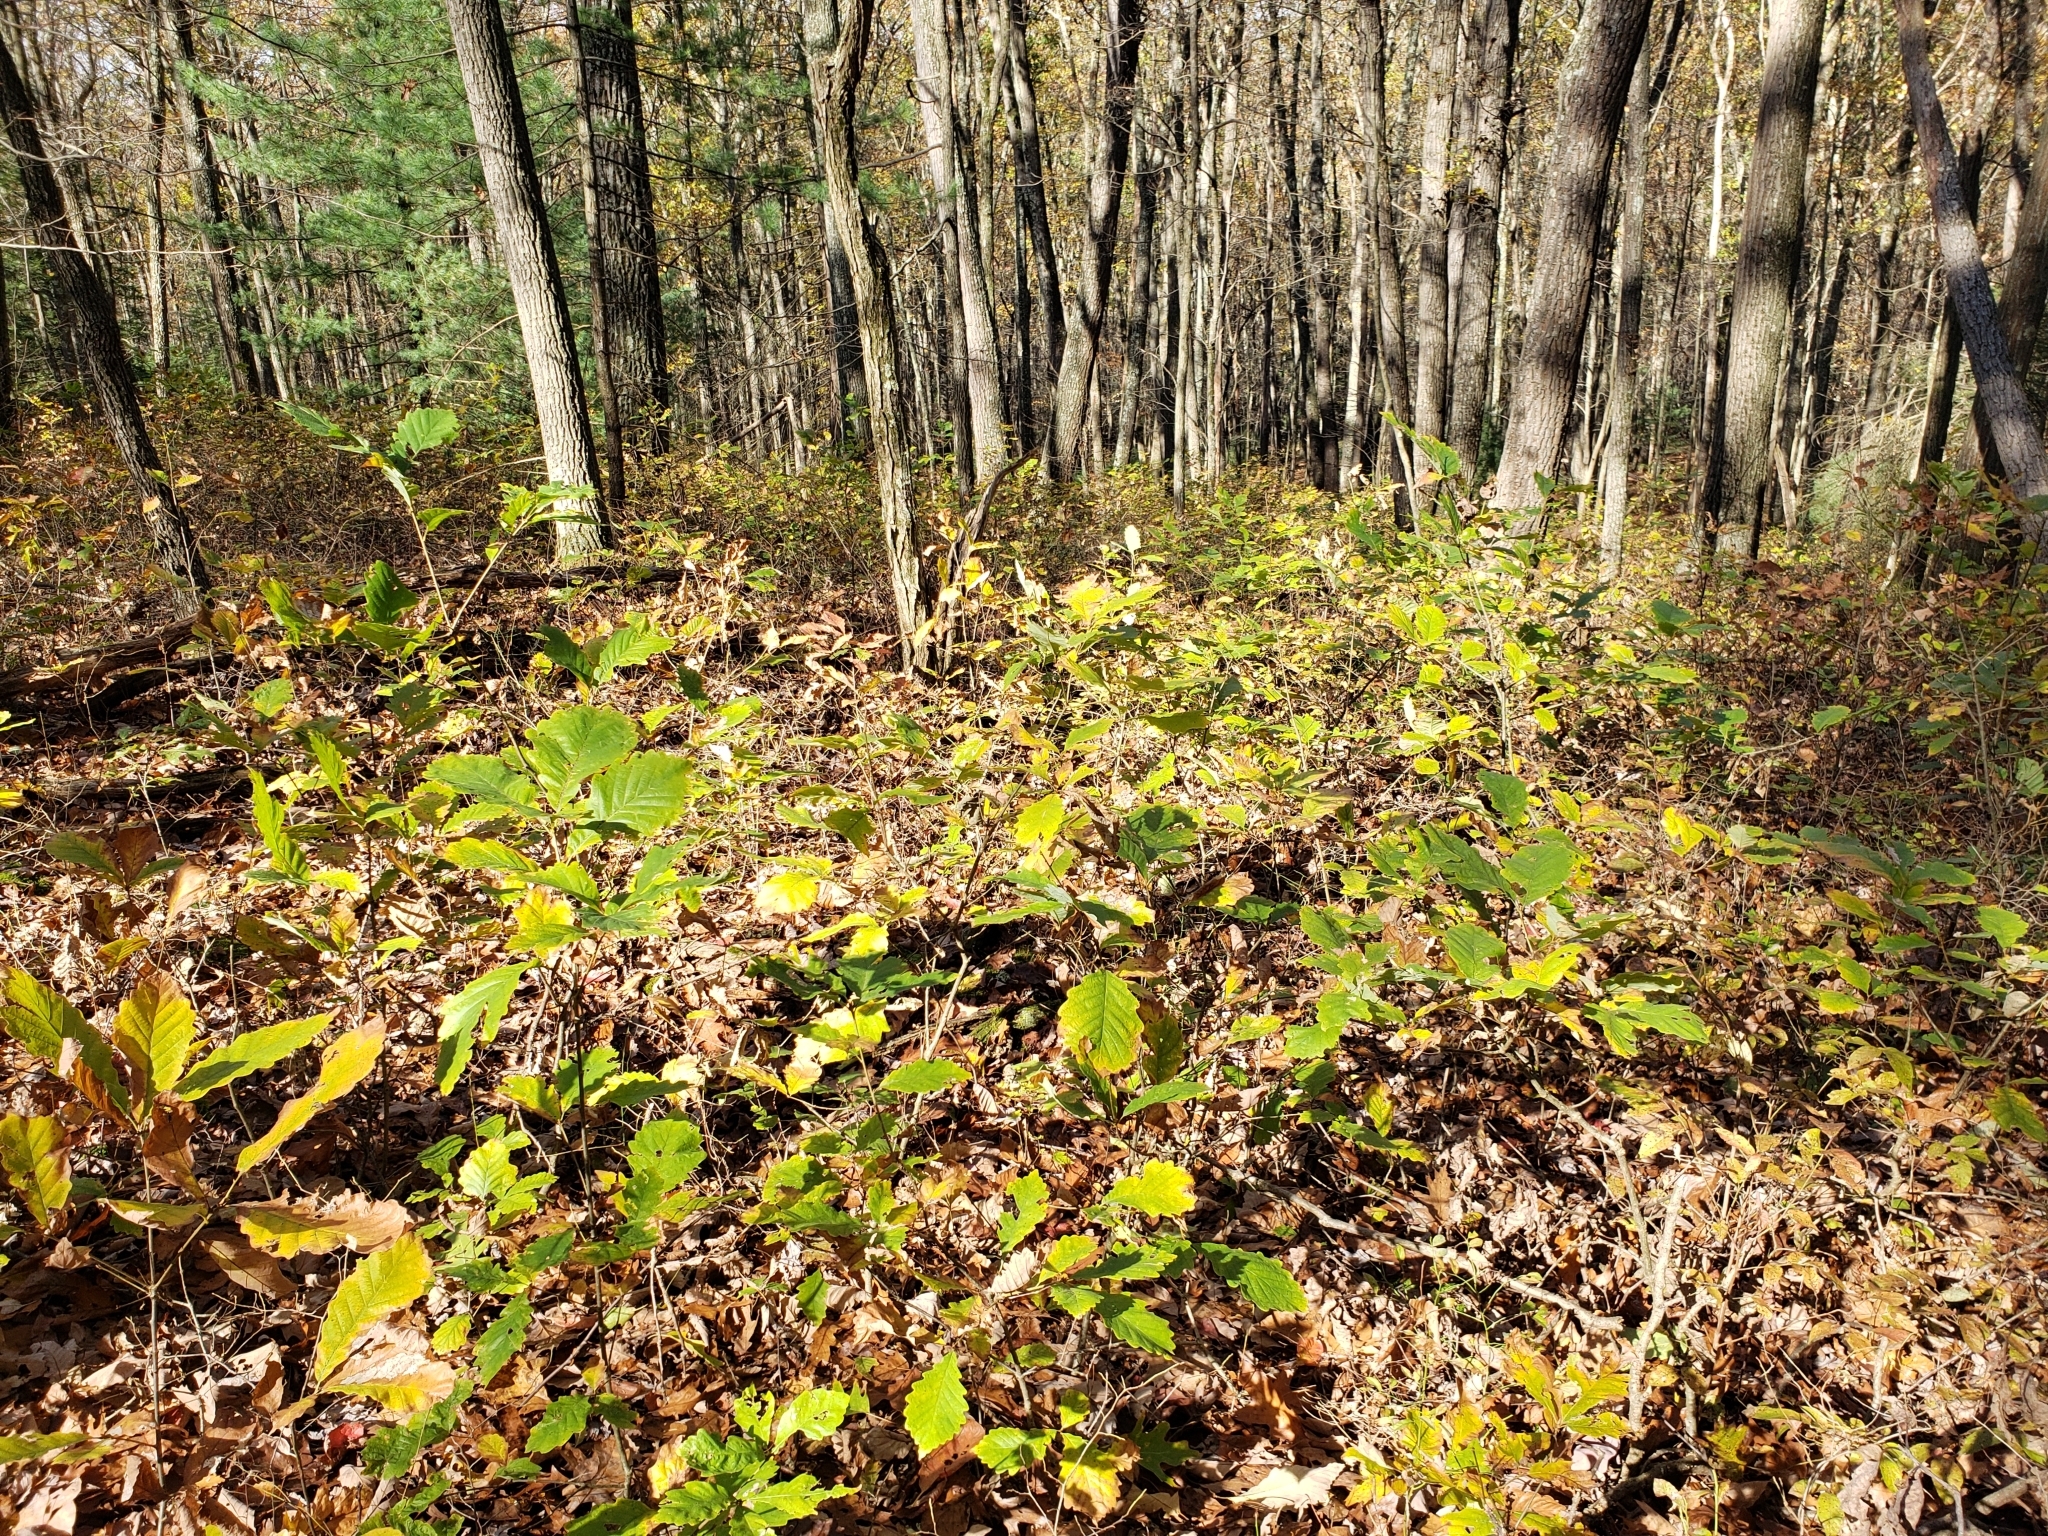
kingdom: Plantae
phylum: Tracheophyta
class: Magnoliopsida
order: Fagales
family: Fagaceae
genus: Quercus
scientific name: Quercus montana
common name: Chestnut oak
